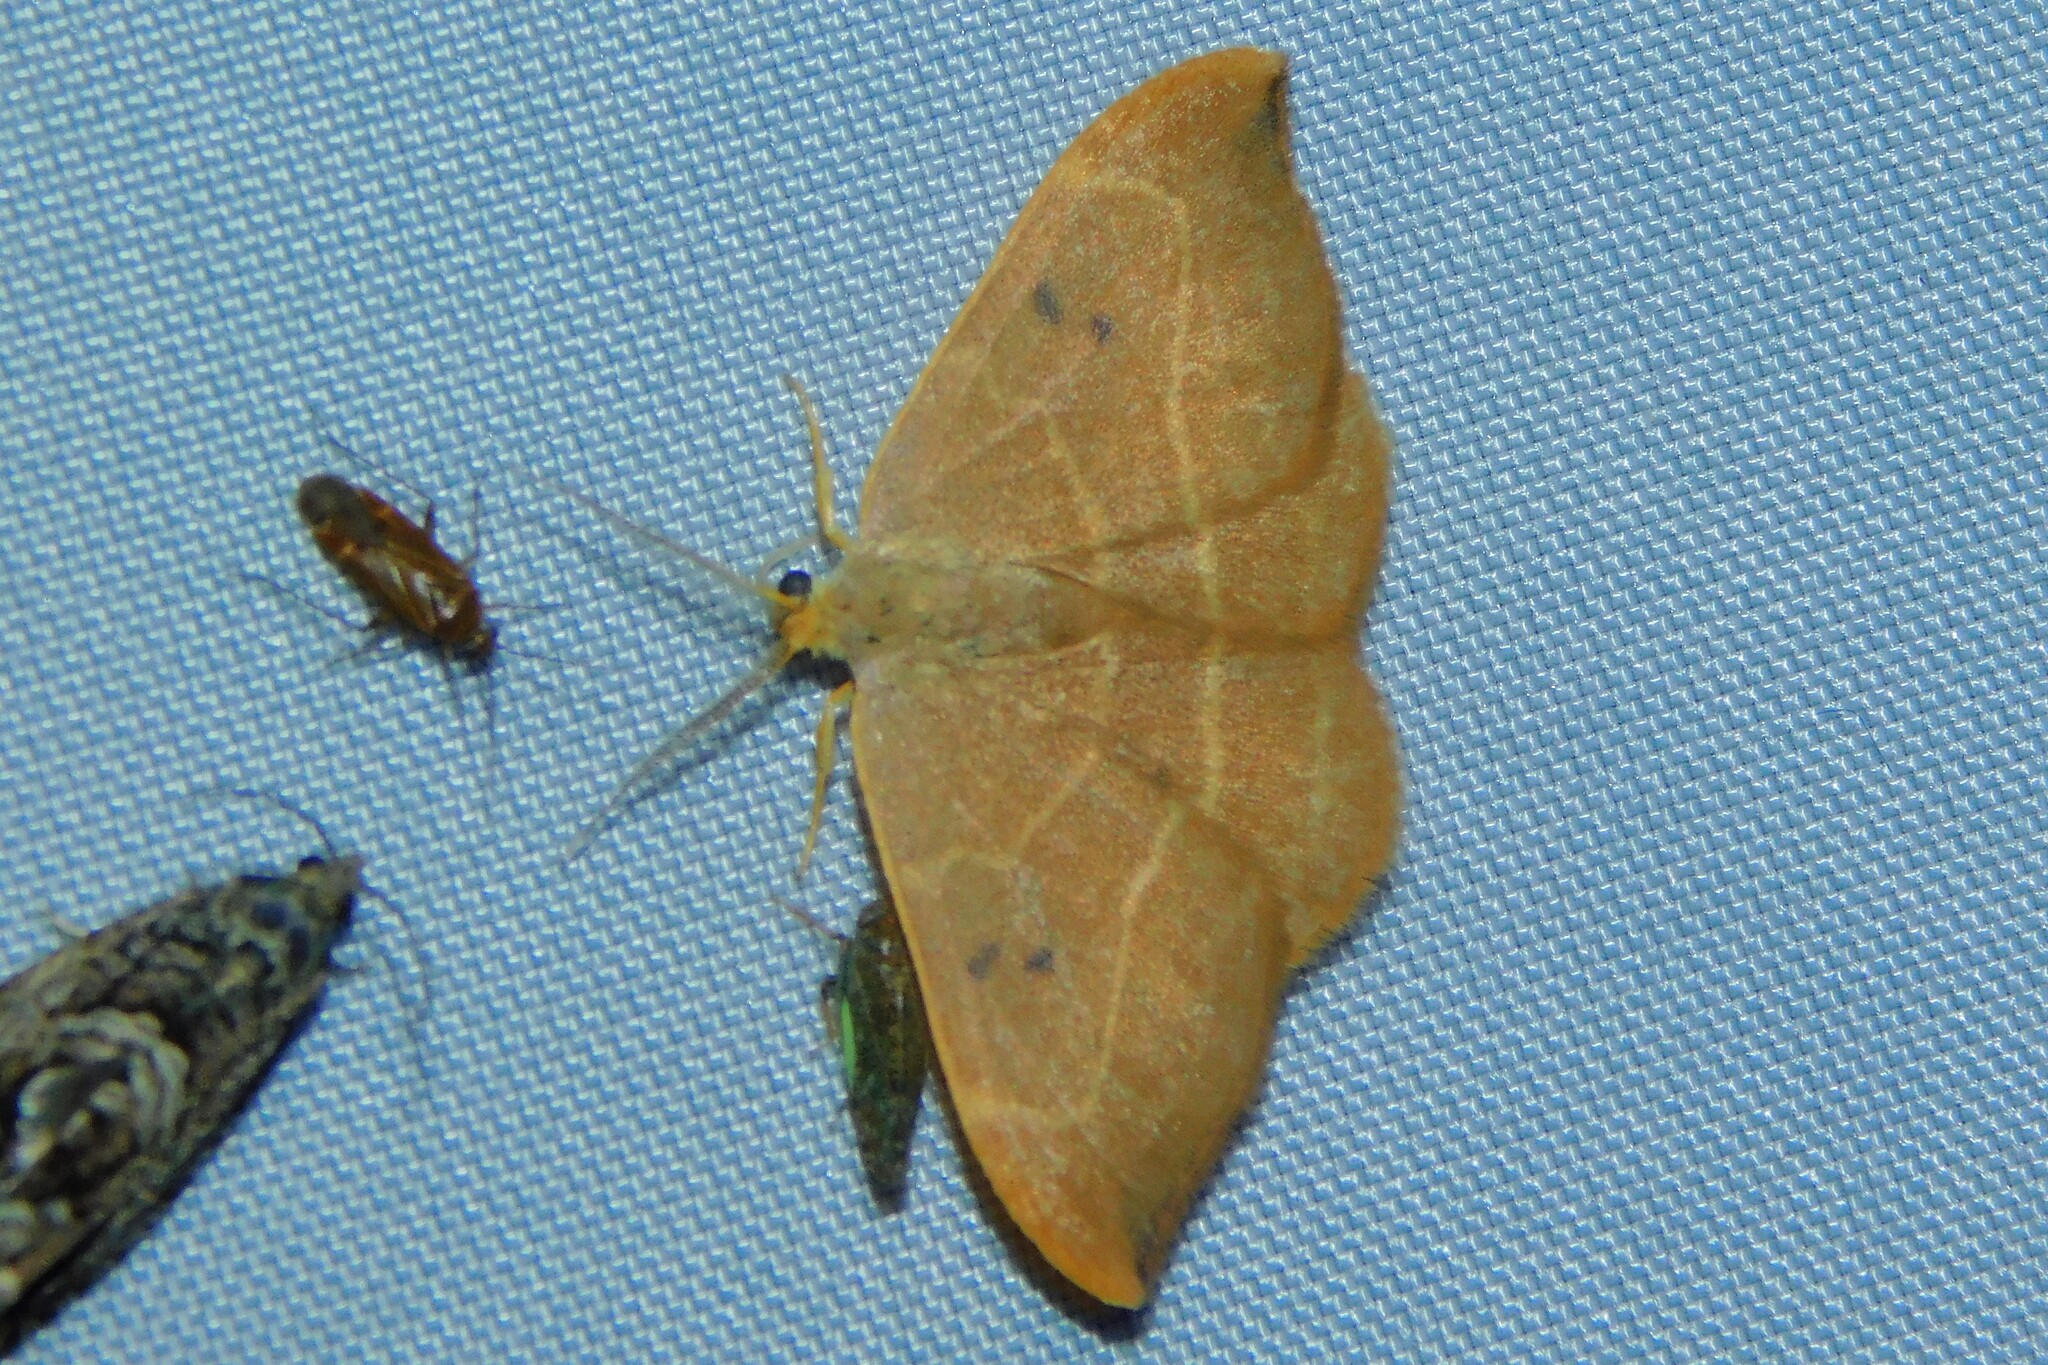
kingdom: Animalia
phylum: Arthropoda
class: Insecta
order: Lepidoptera
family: Drepanidae
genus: Watsonalla
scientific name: Watsonalla binaria
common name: Oak hook-tip
